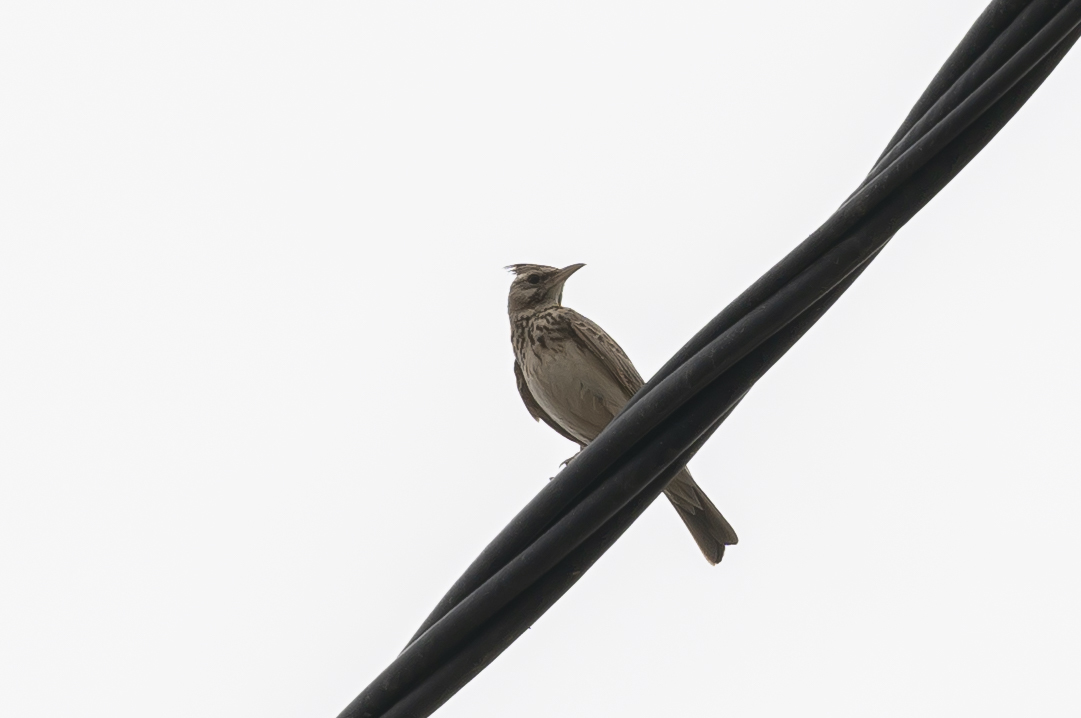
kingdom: Animalia
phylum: Chordata
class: Aves
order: Passeriformes
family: Alaudidae
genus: Galerida
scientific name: Galerida cristata
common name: Crested lark
